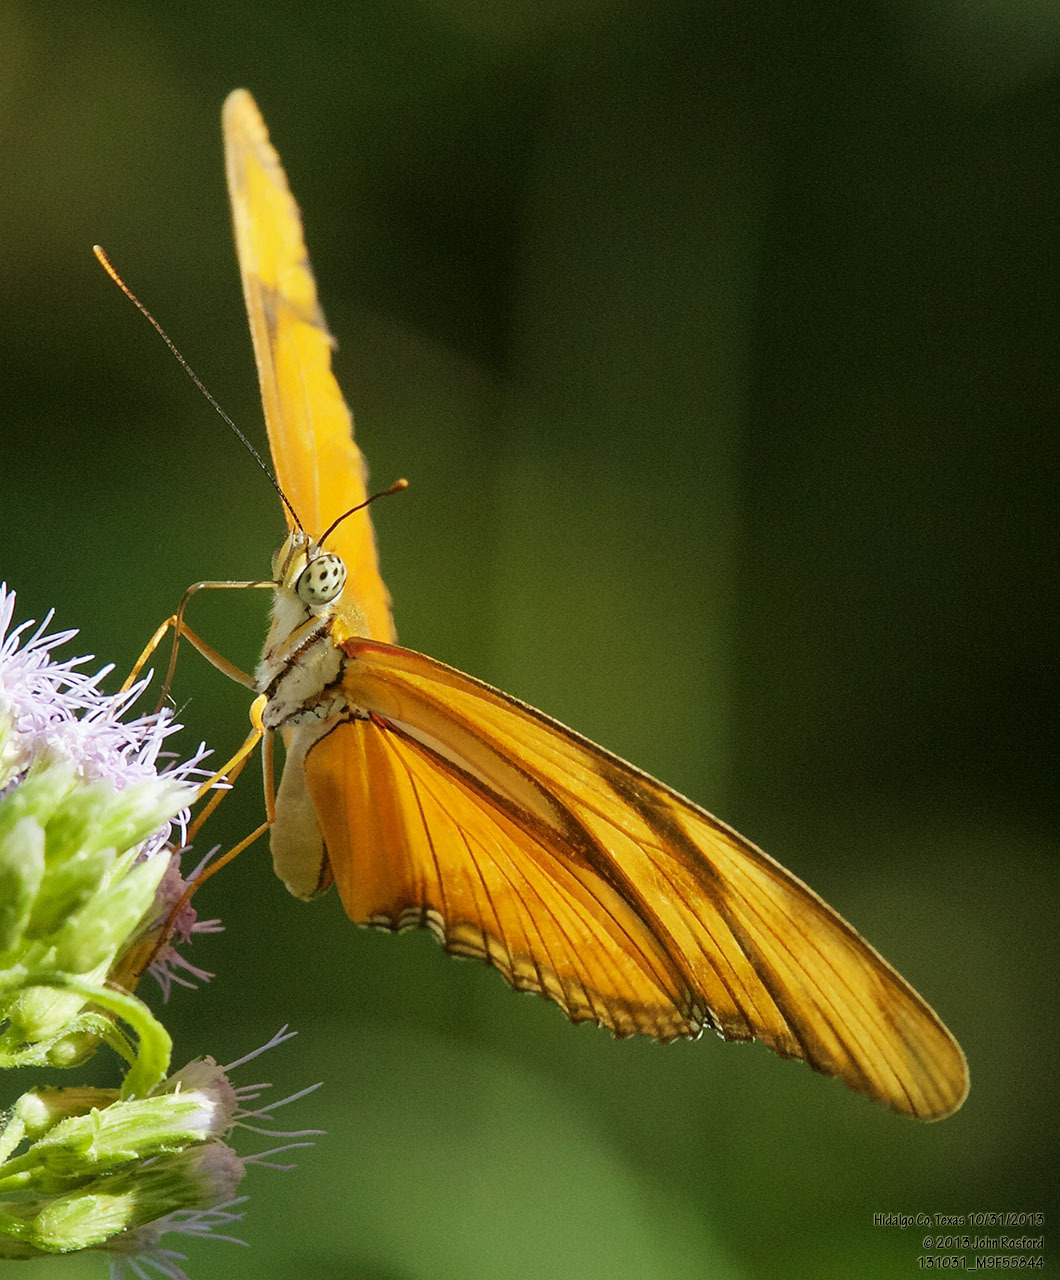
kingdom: Animalia
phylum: Arthropoda
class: Insecta
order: Lepidoptera
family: Nymphalidae
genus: Dryas
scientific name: Dryas iulia
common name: Flambeau
